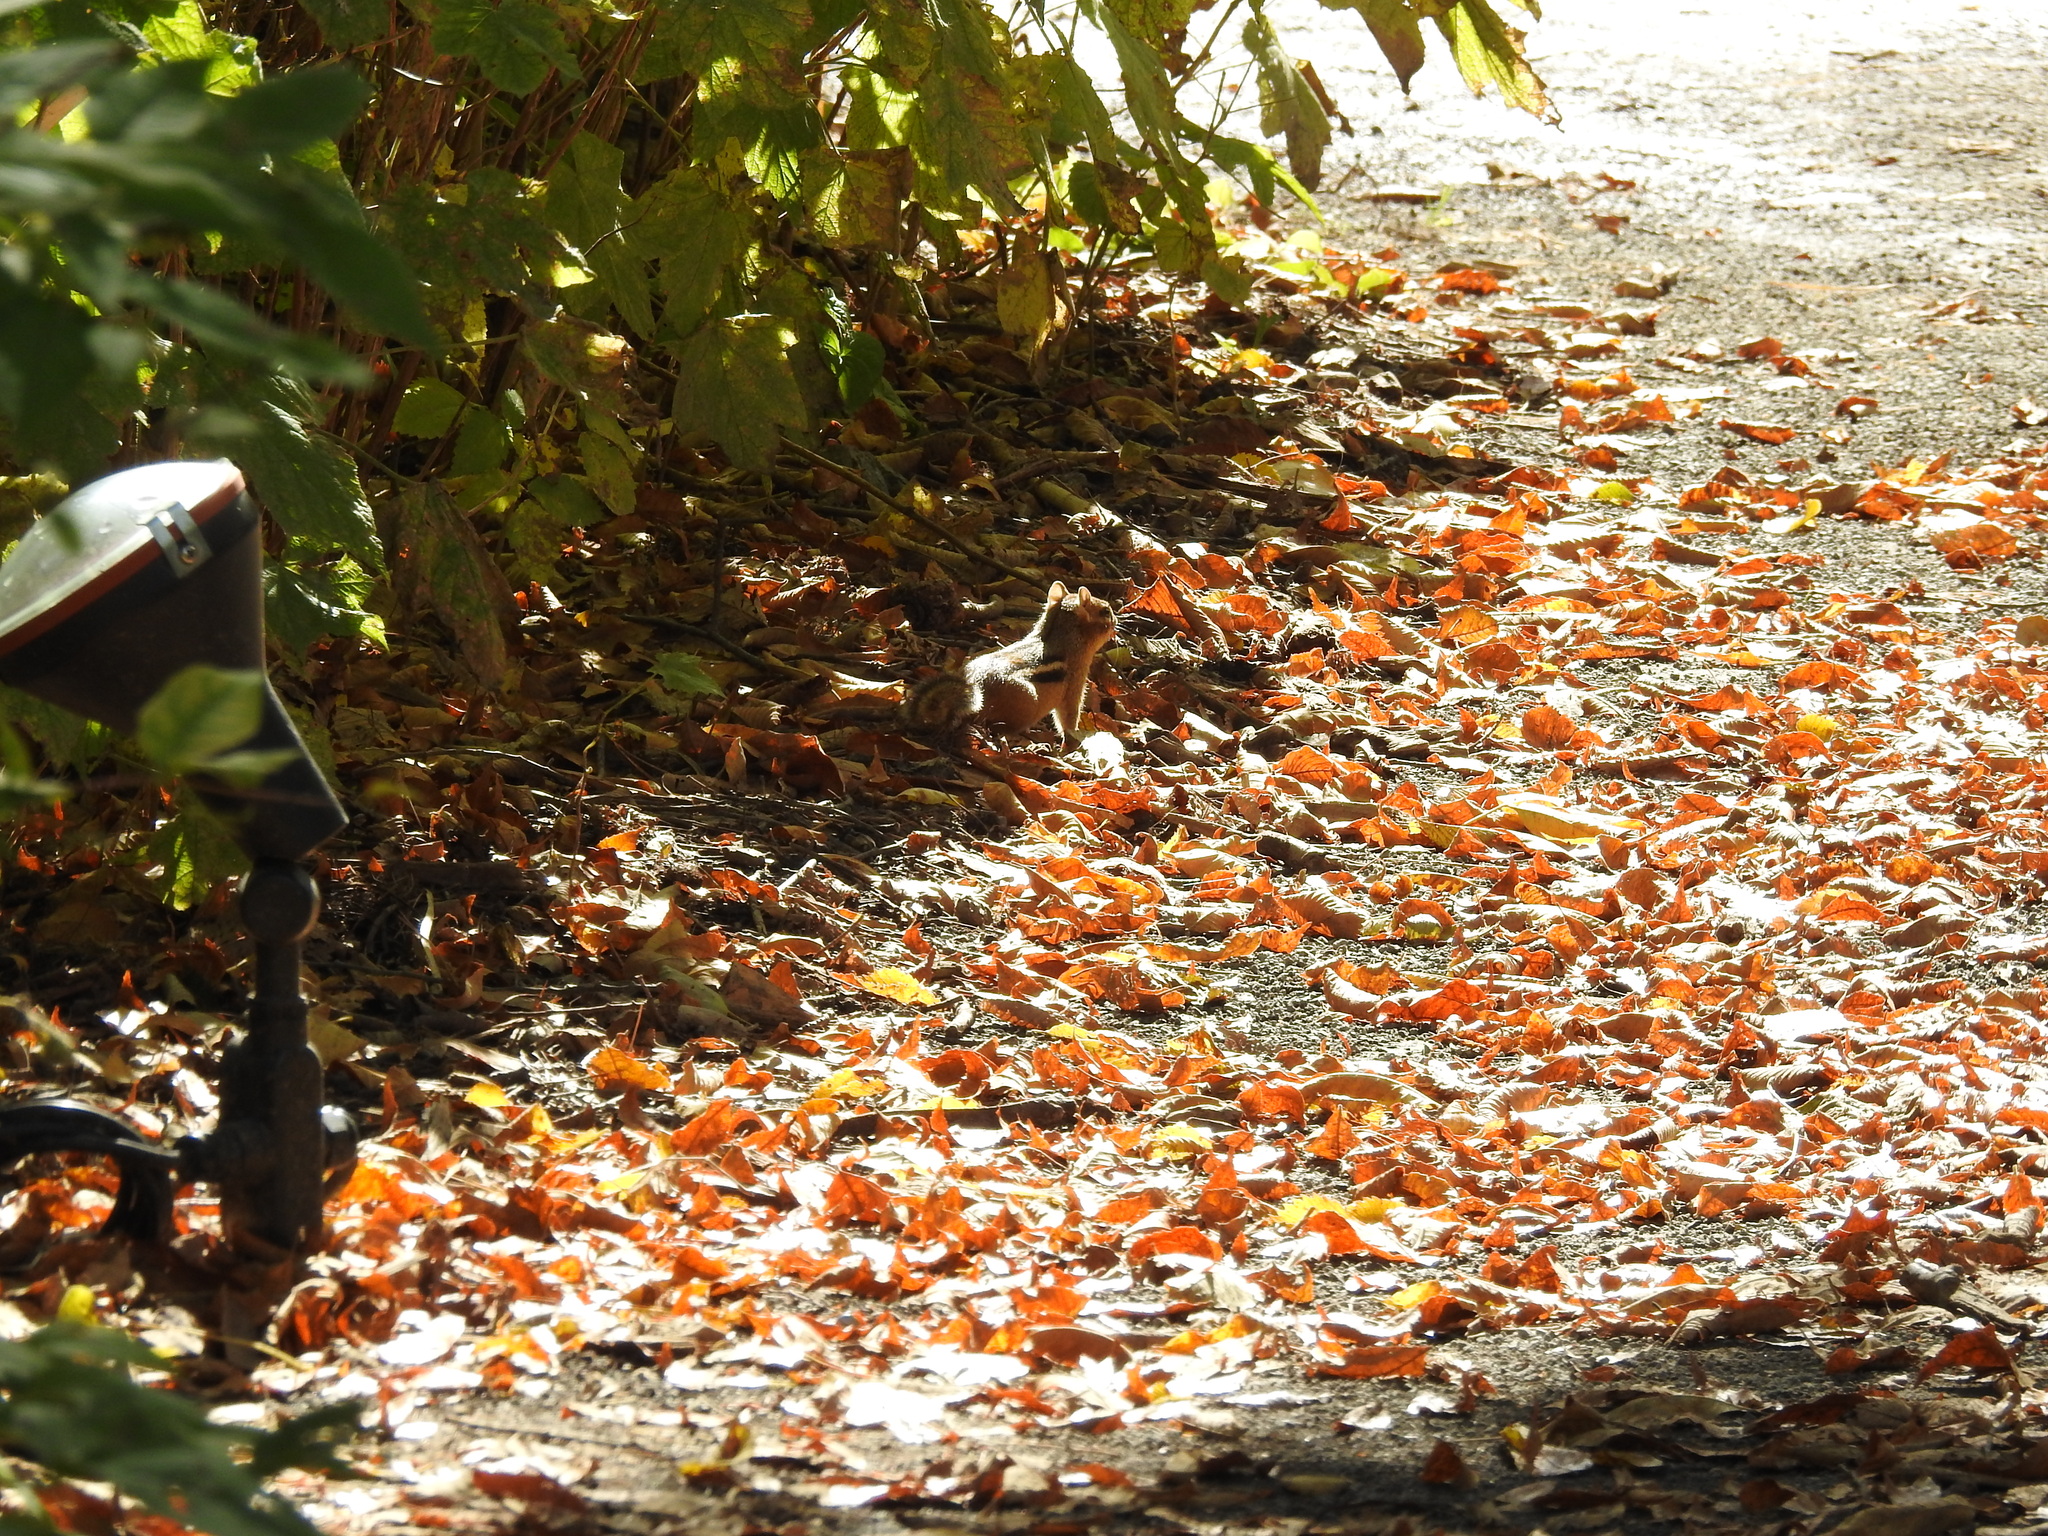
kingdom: Animalia
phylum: Chordata
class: Mammalia
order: Rodentia
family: Sciuridae
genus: Tamias
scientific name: Tamias striatus
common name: Eastern chipmunk
